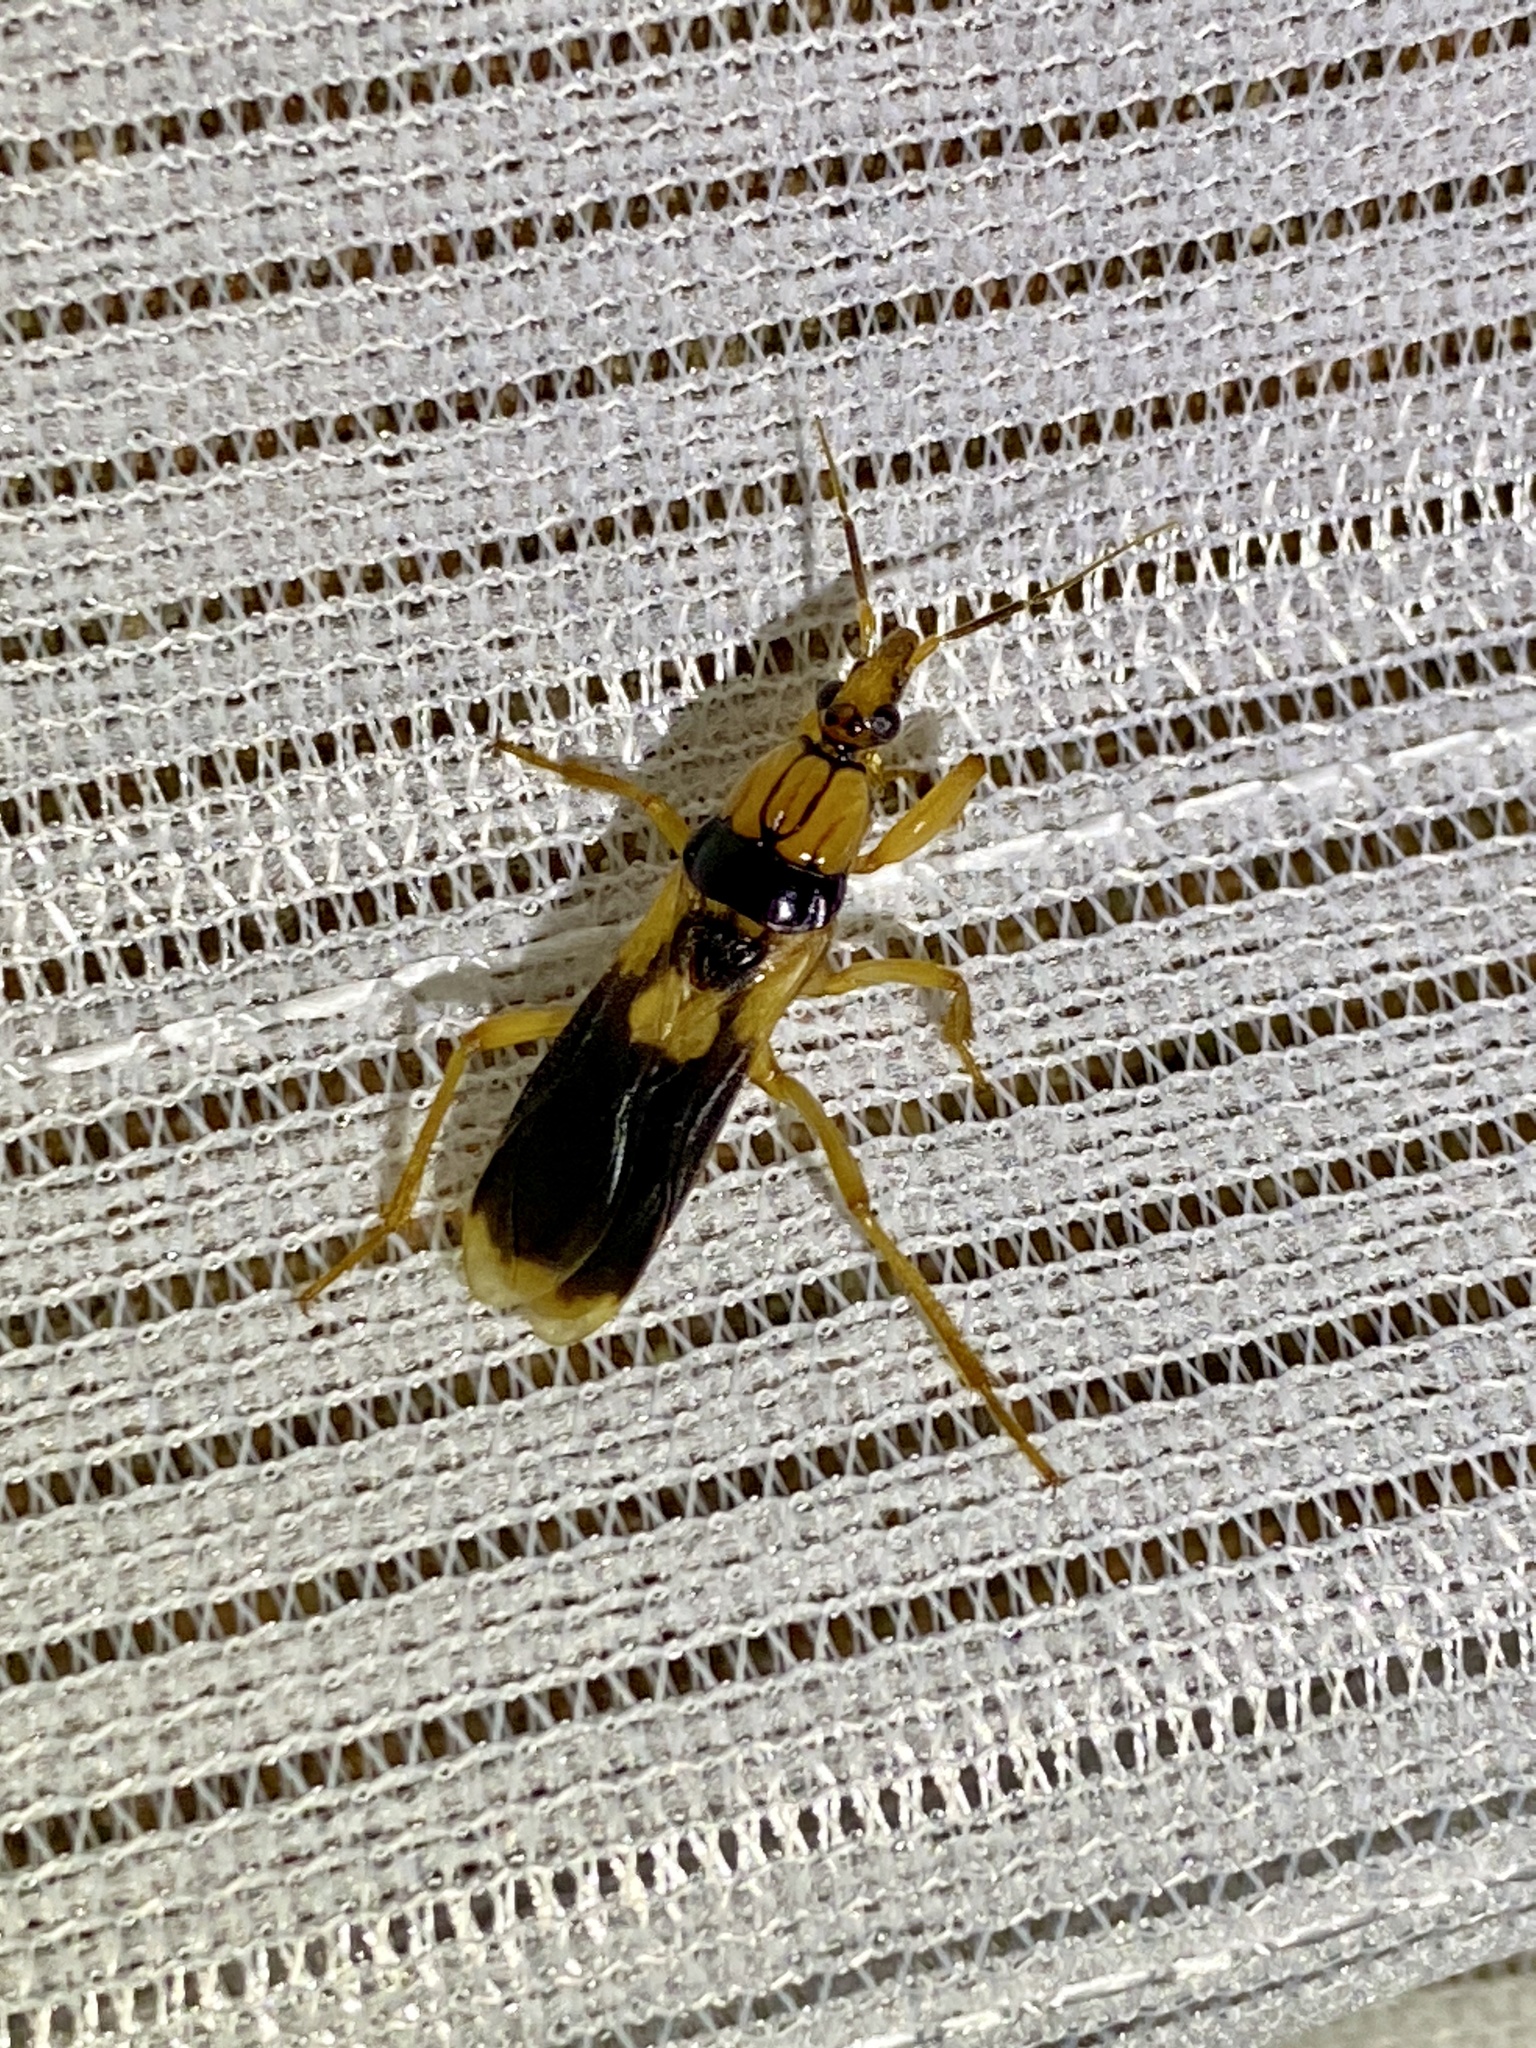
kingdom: Animalia
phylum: Arthropoda
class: Insecta
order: Hemiptera
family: Reduviidae
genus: Sirthenea
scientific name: Sirthenea flavipes
